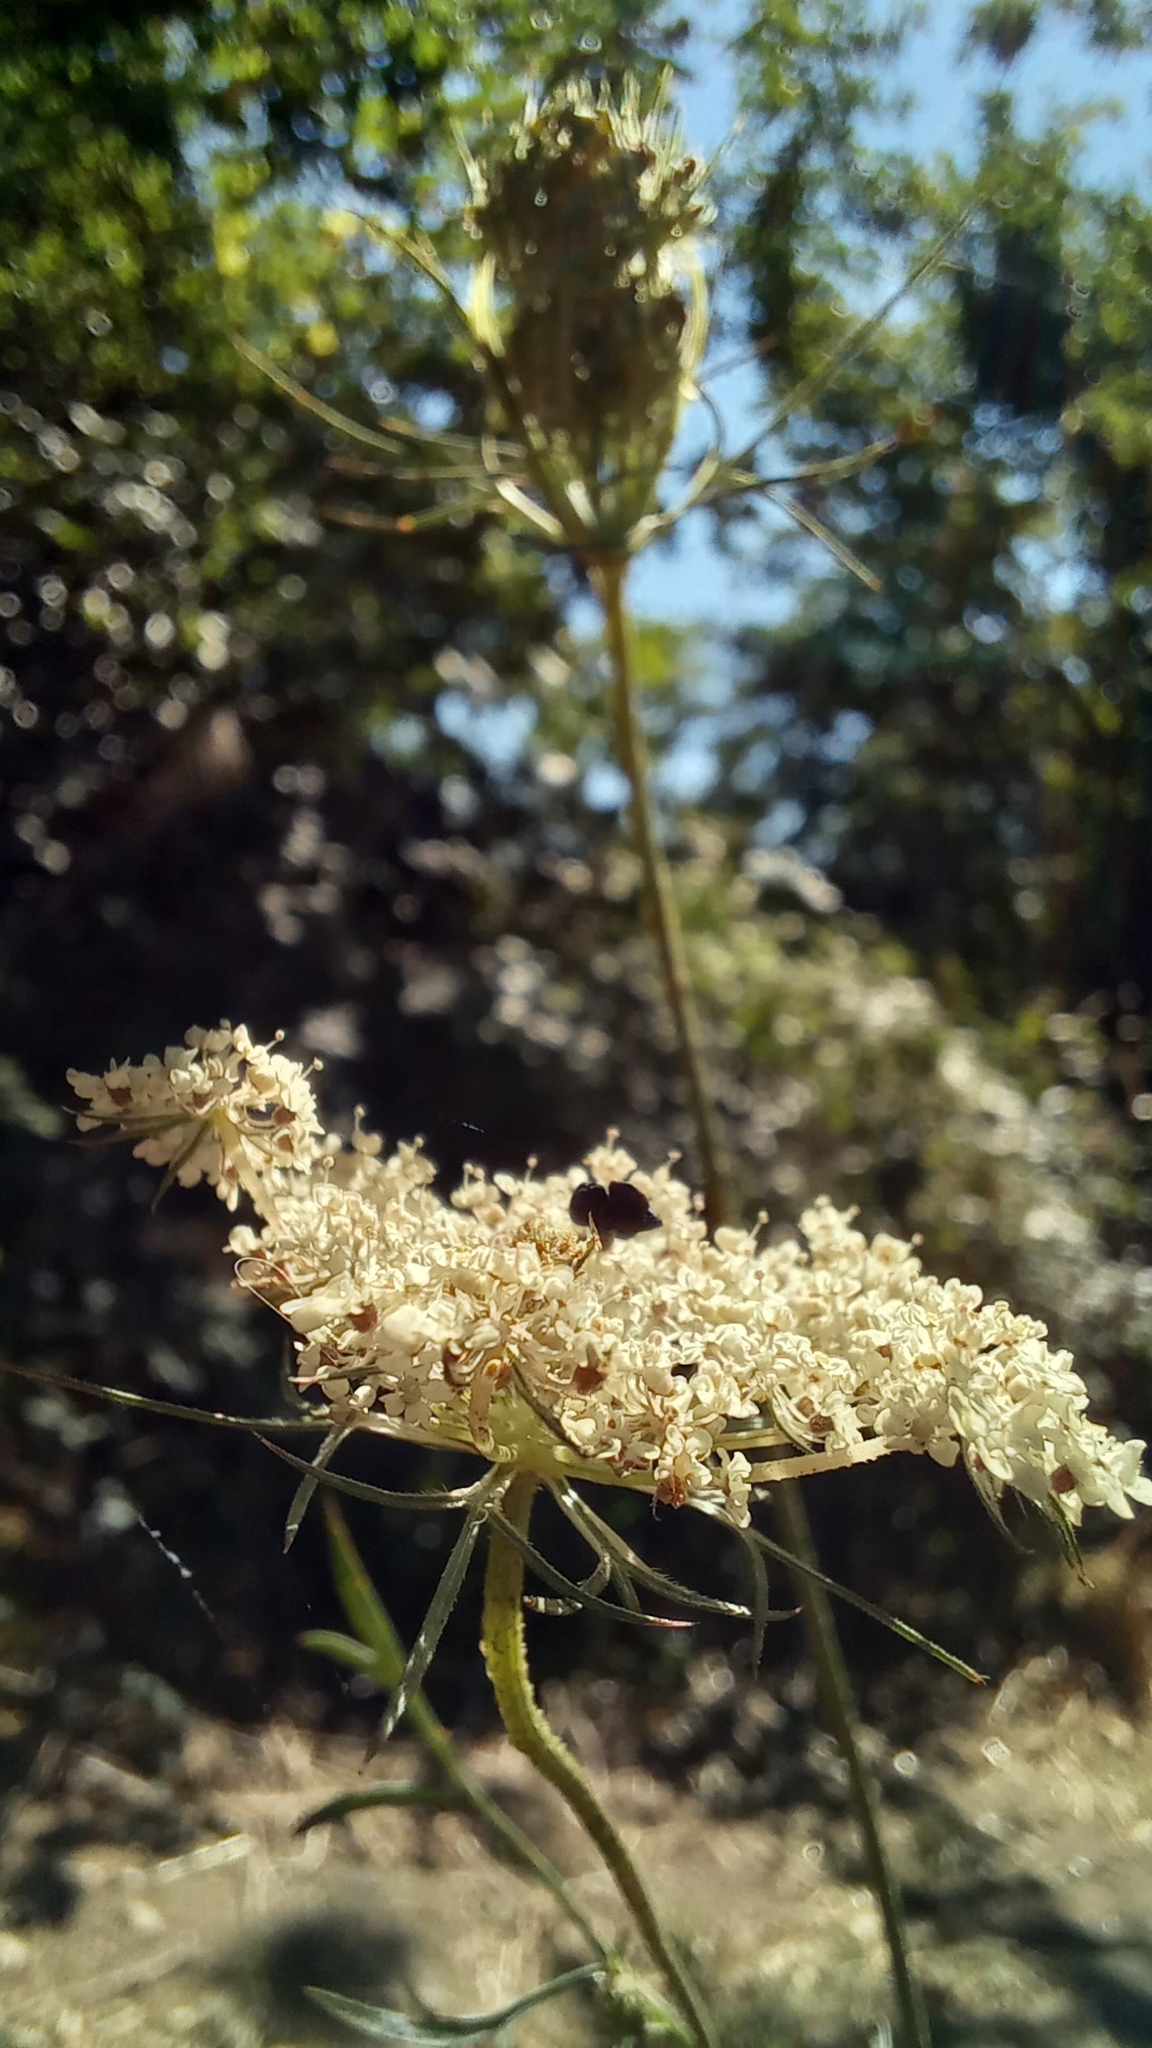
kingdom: Plantae
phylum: Tracheophyta
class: Magnoliopsida
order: Apiales
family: Apiaceae
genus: Daucus
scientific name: Daucus carota
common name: Wild carrot
